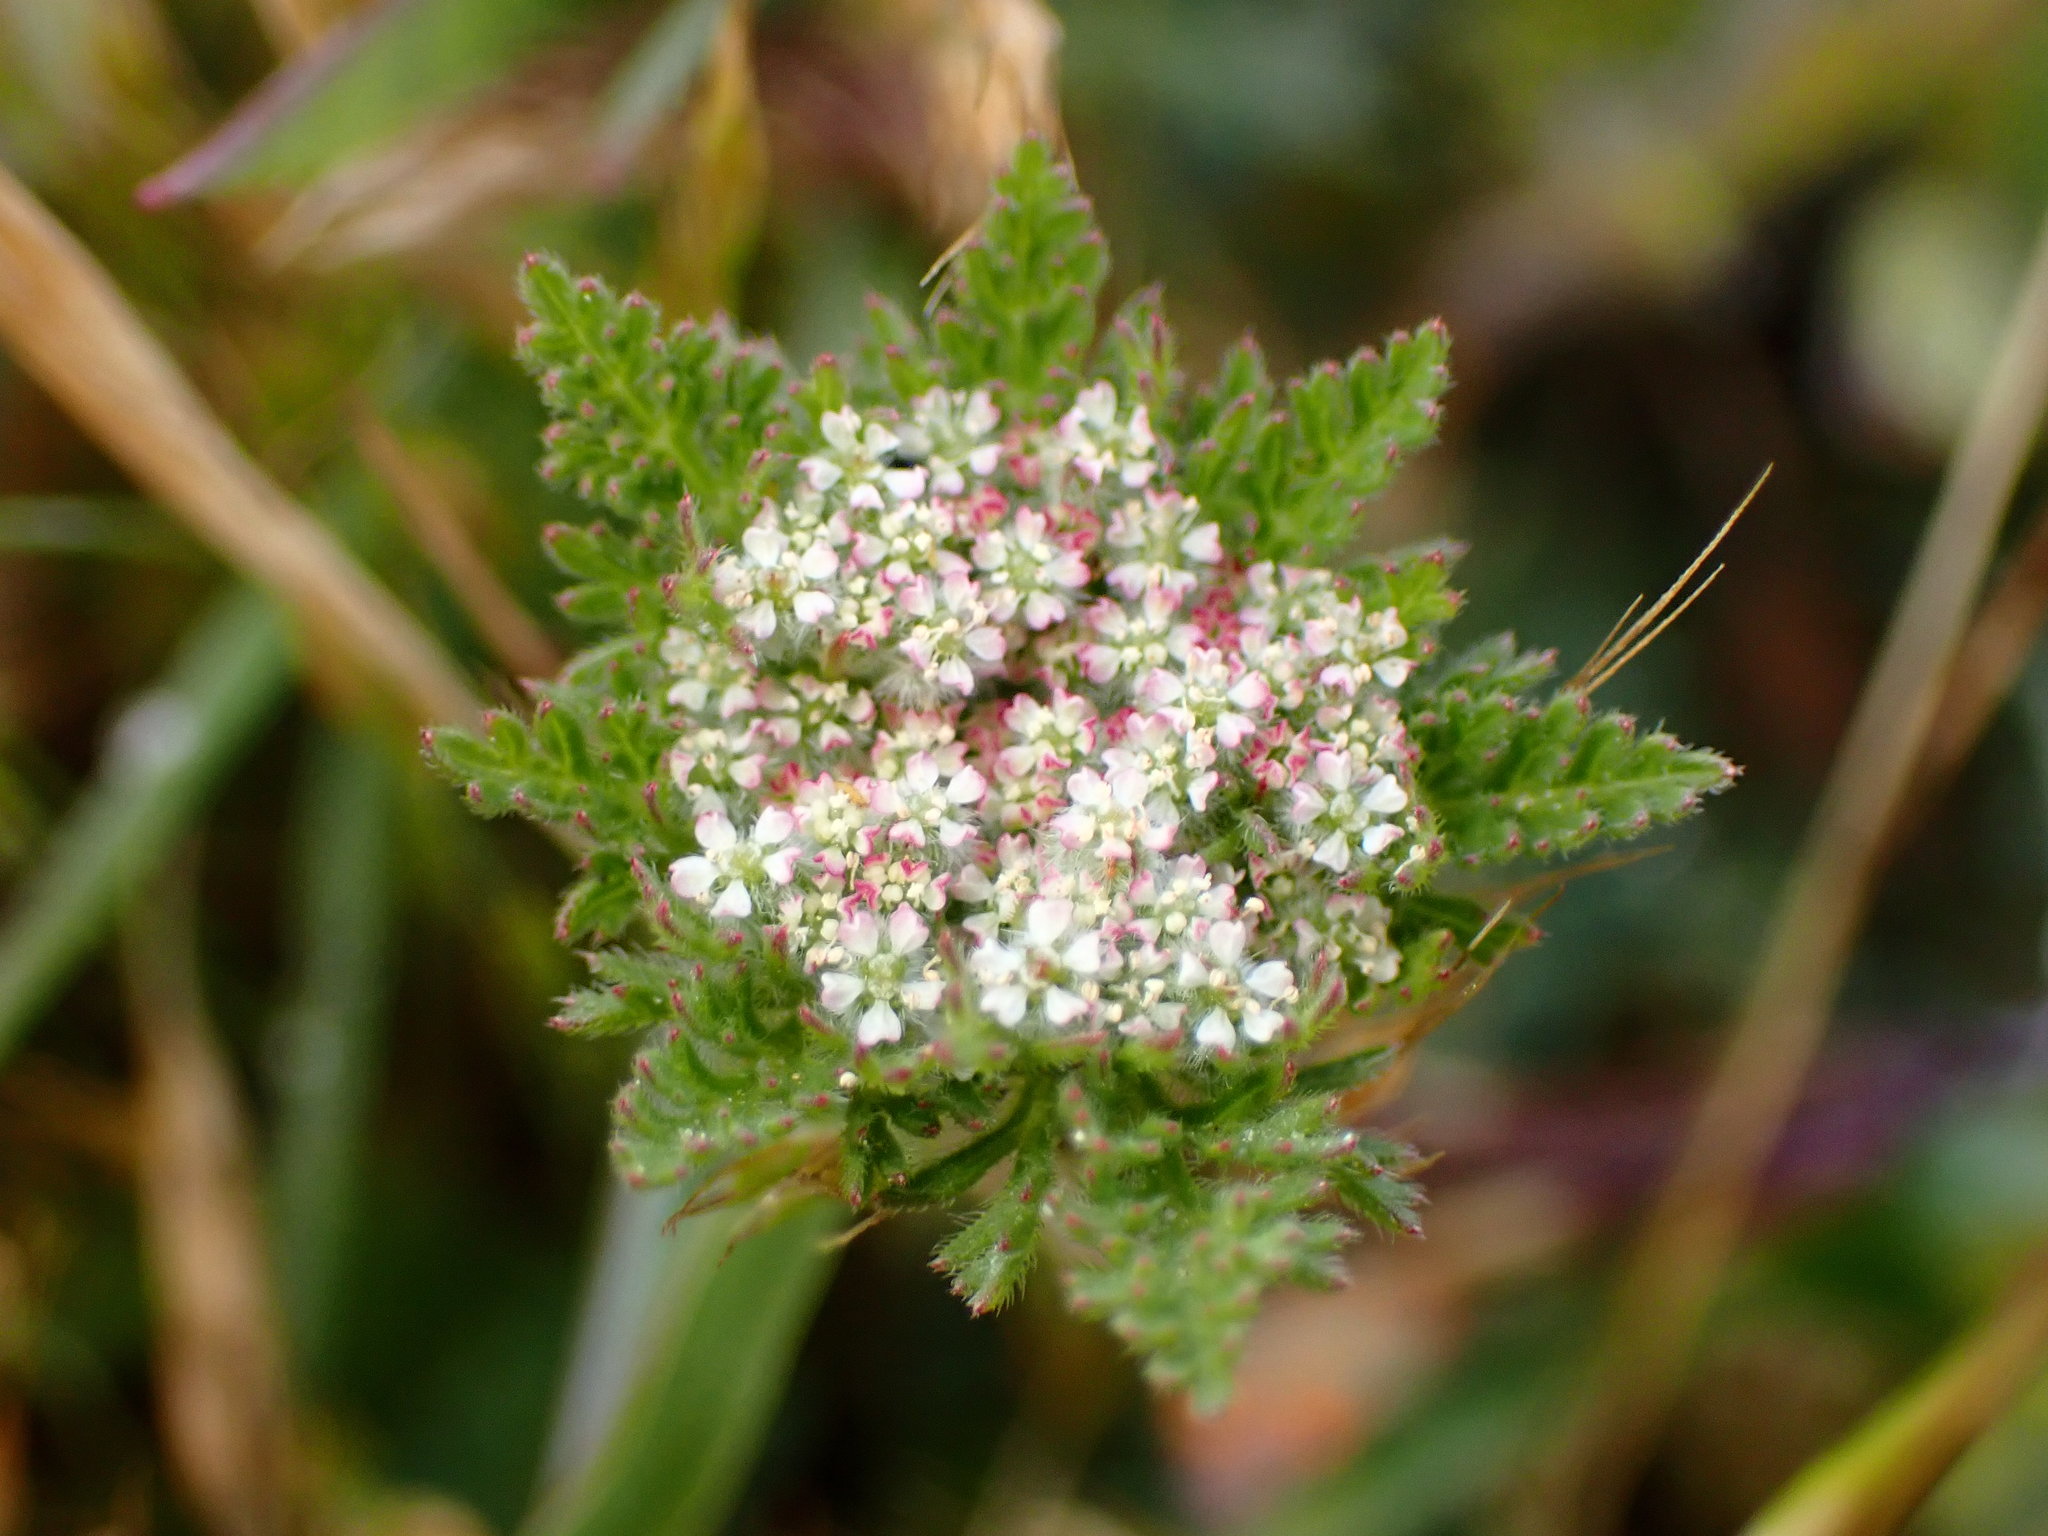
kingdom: Plantae
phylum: Tracheophyta
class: Magnoliopsida
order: Apiales
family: Apiaceae
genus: Daucus
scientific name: Daucus pusillus
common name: Southwest wild carrot
